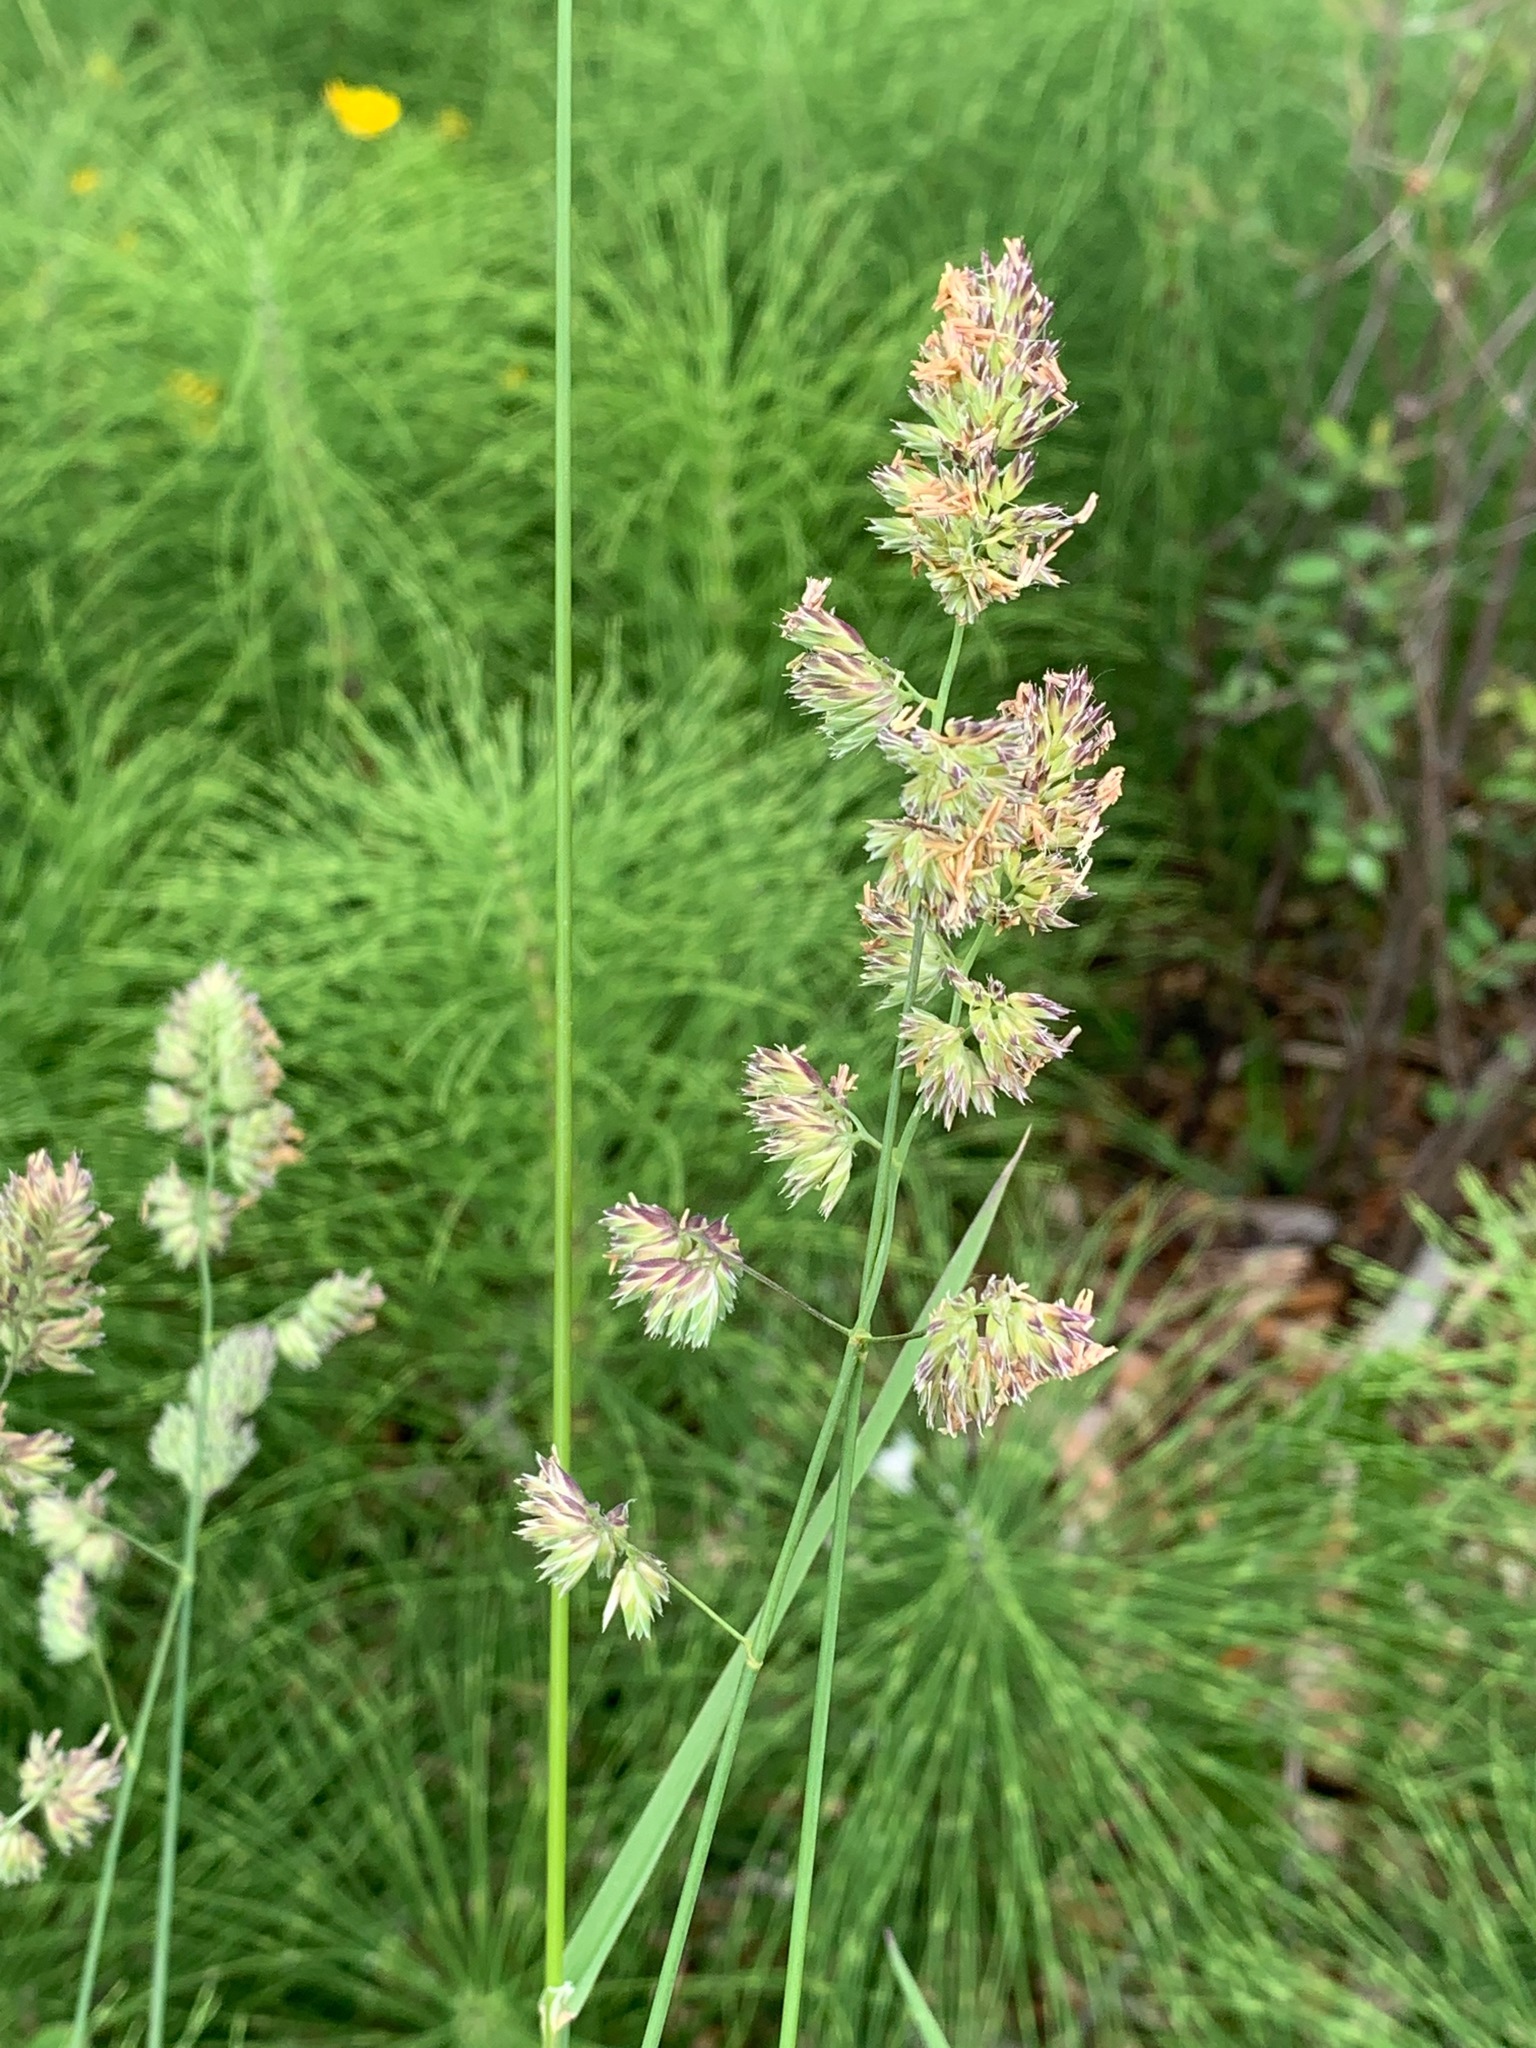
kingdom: Plantae
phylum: Tracheophyta
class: Liliopsida
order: Poales
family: Poaceae
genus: Dactylis
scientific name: Dactylis glomerata
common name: Orchardgrass
